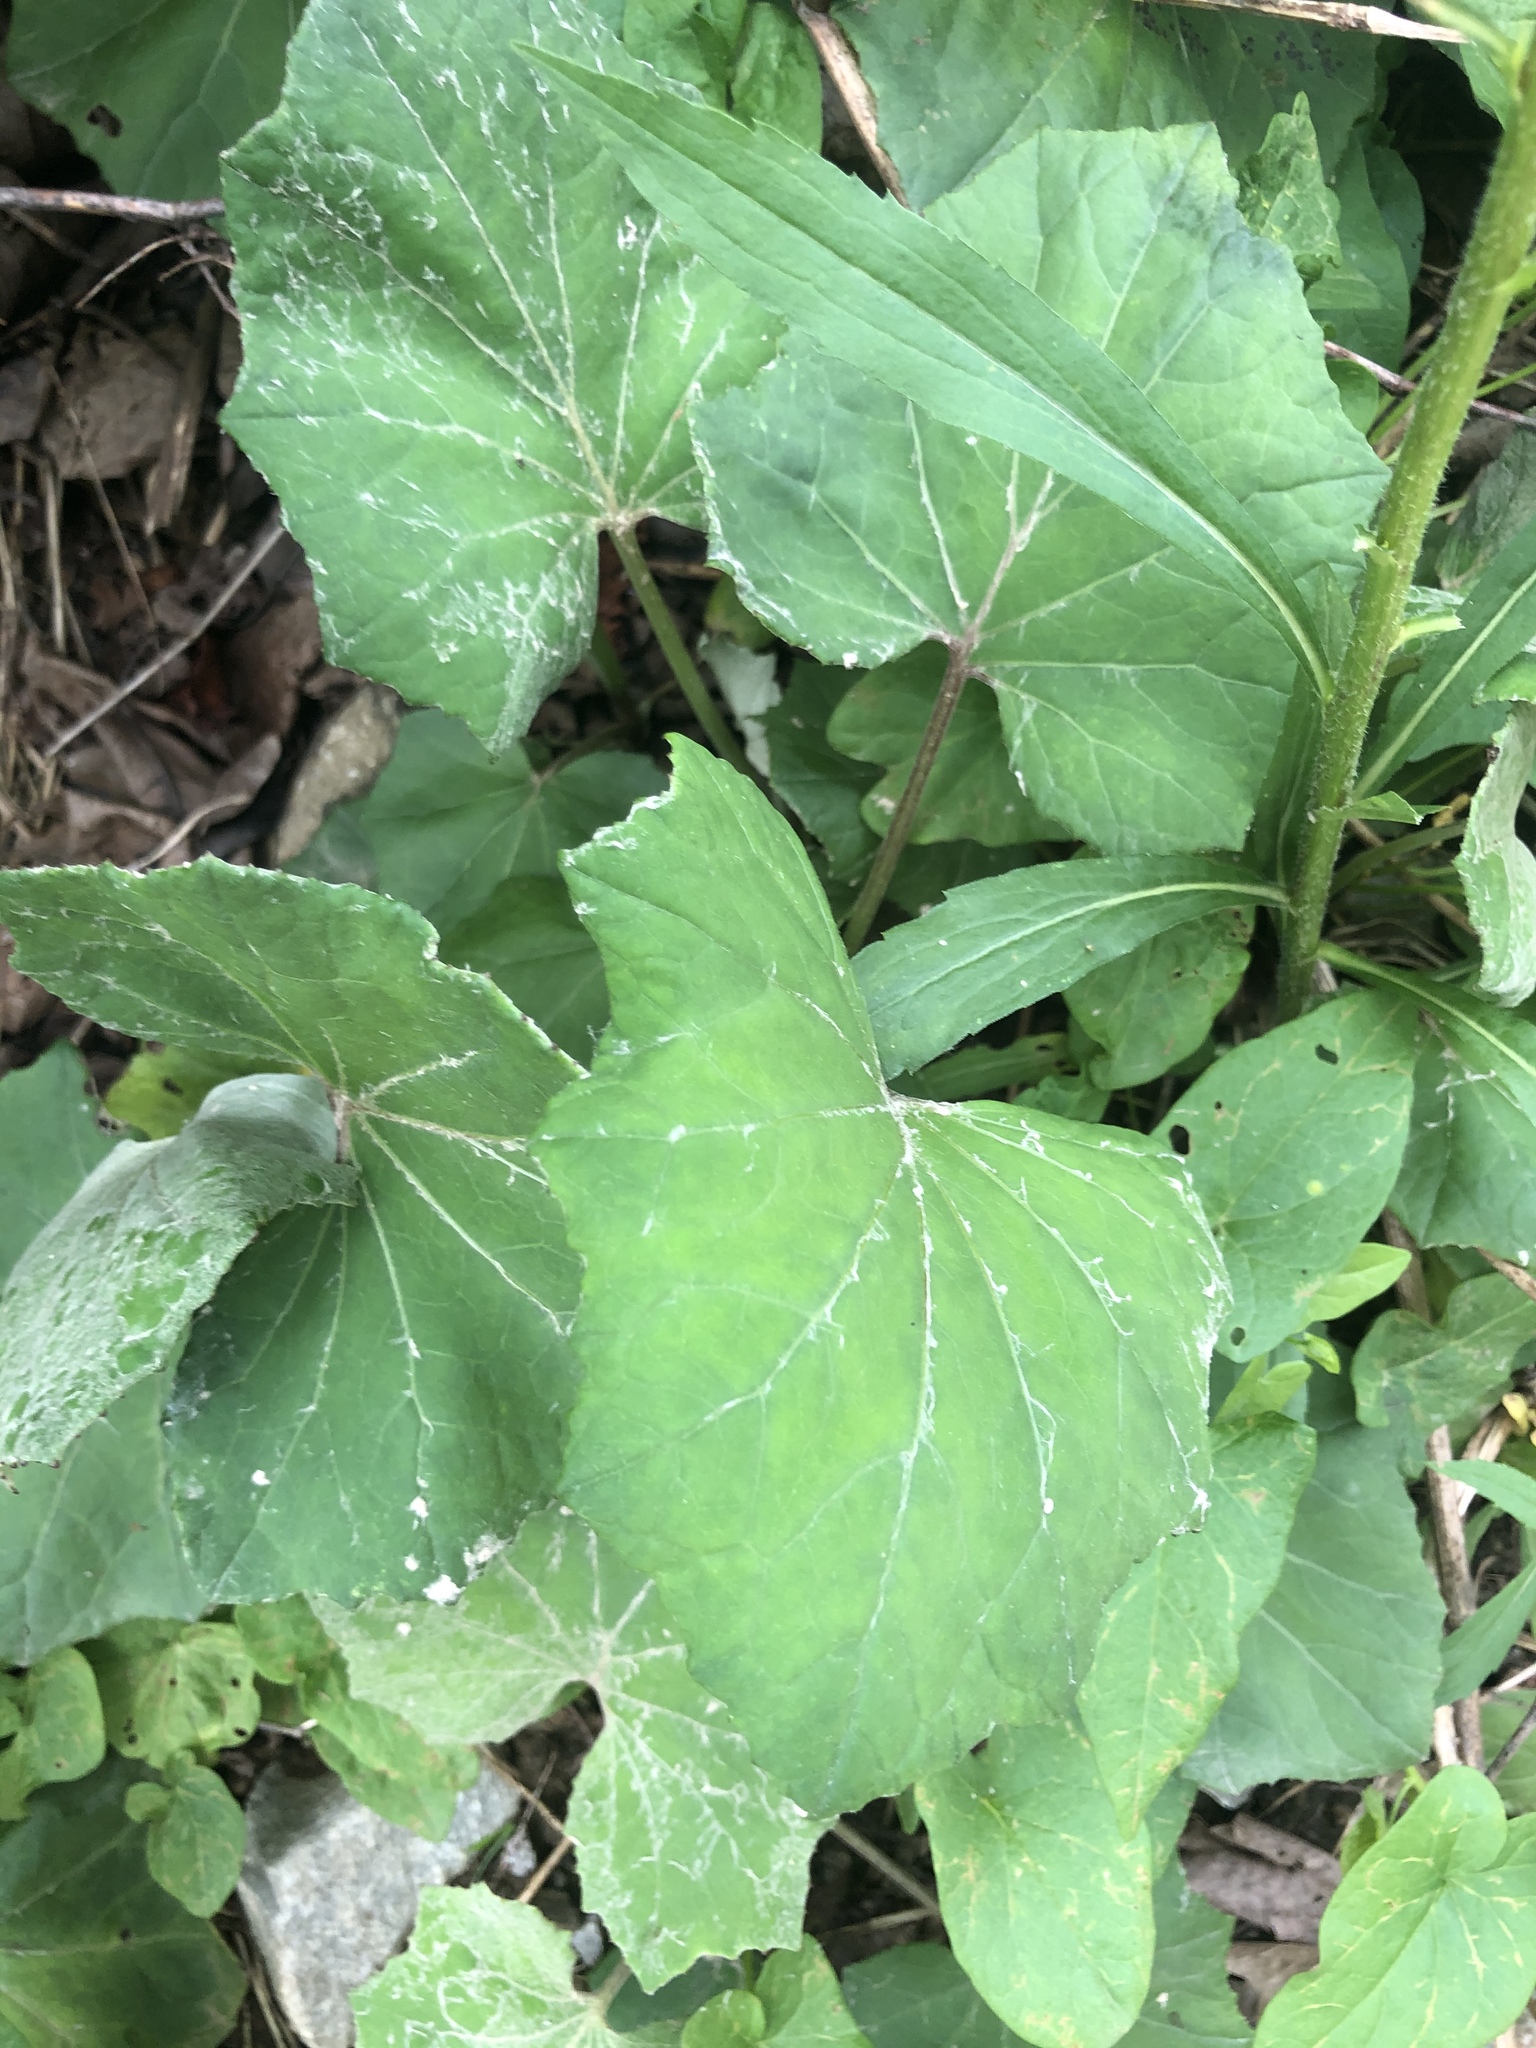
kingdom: Plantae
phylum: Tracheophyta
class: Magnoliopsida
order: Asterales
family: Asteraceae
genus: Tussilago
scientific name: Tussilago farfara
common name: Coltsfoot
